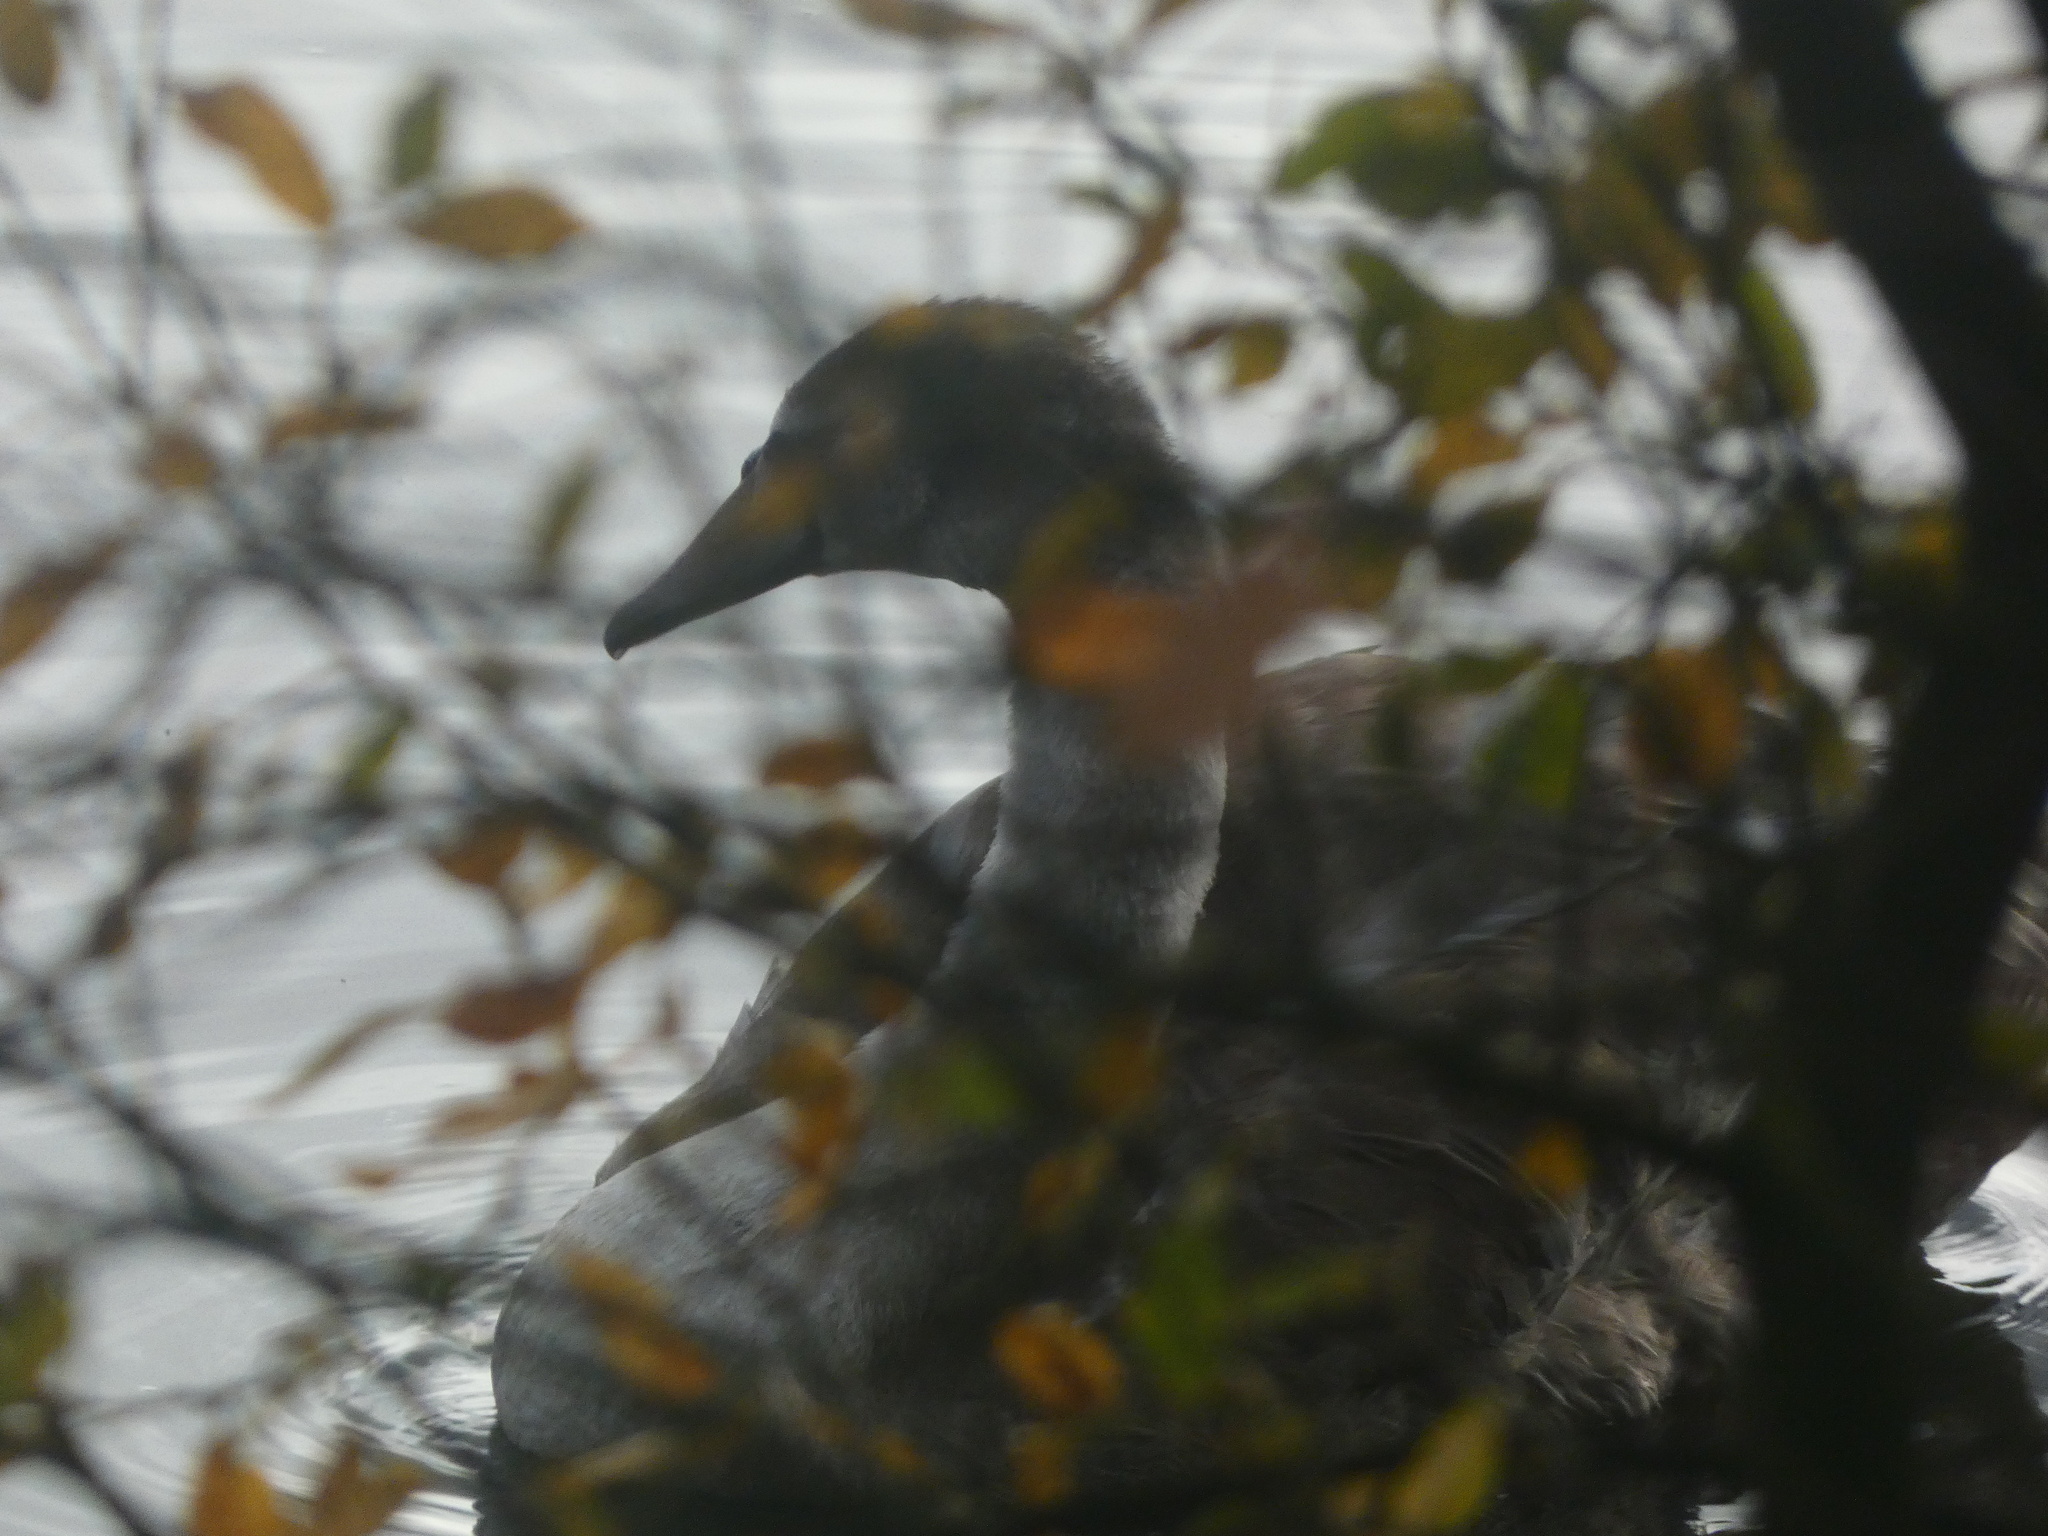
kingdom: Animalia
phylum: Chordata
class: Aves
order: Anseriformes
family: Anatidae
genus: Cygnus
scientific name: Cygnus olor
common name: Mute swan
